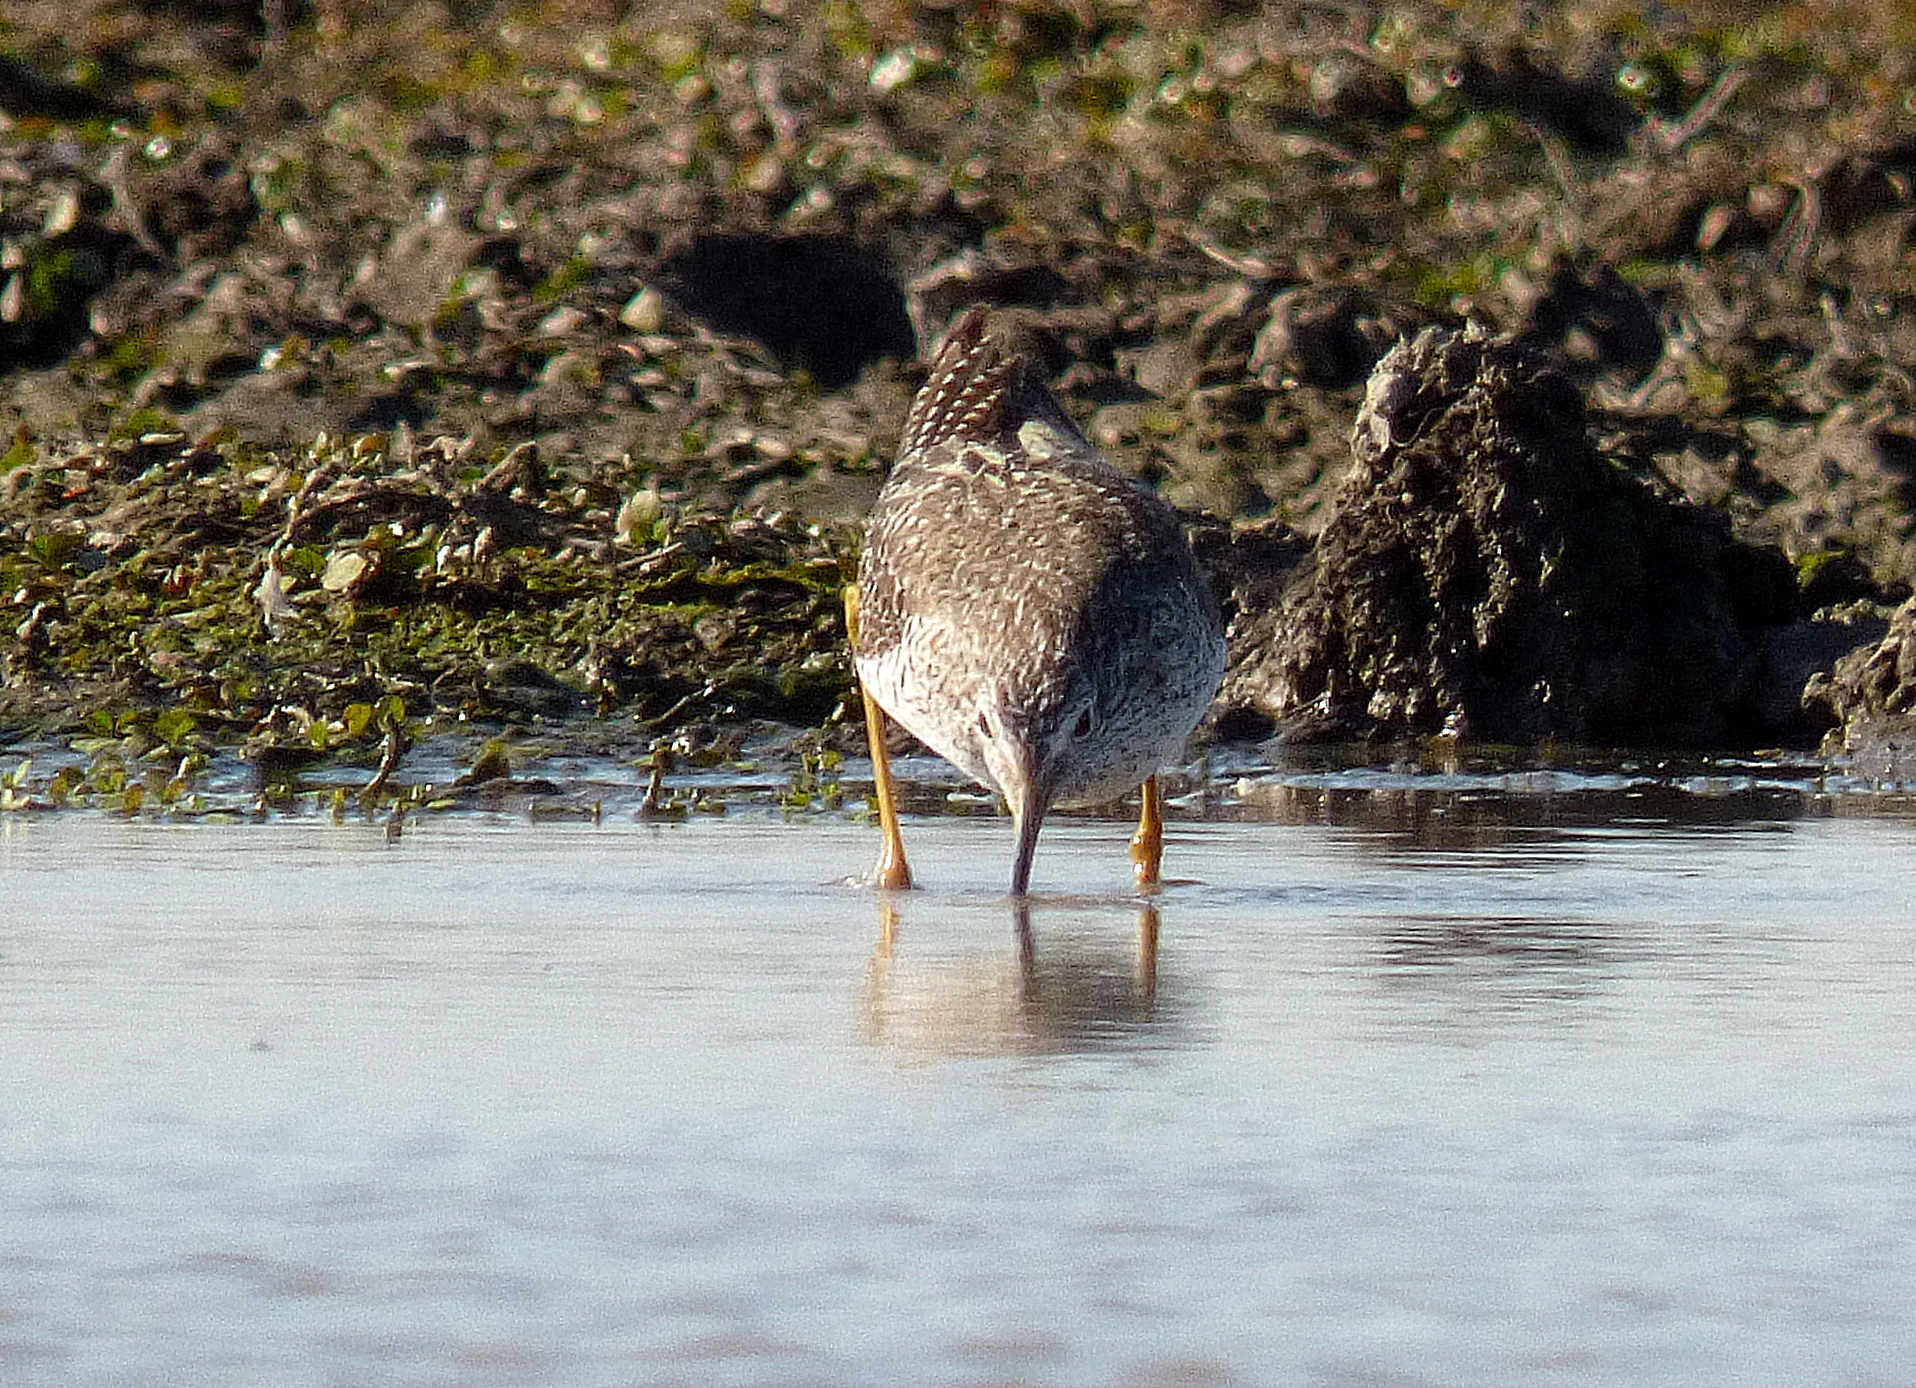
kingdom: Animalia
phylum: Chordata
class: Aves
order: Charadriiformes
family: Scolopacidae
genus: Tringa
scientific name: Tringa flavipes
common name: Lesser yellowlegs
